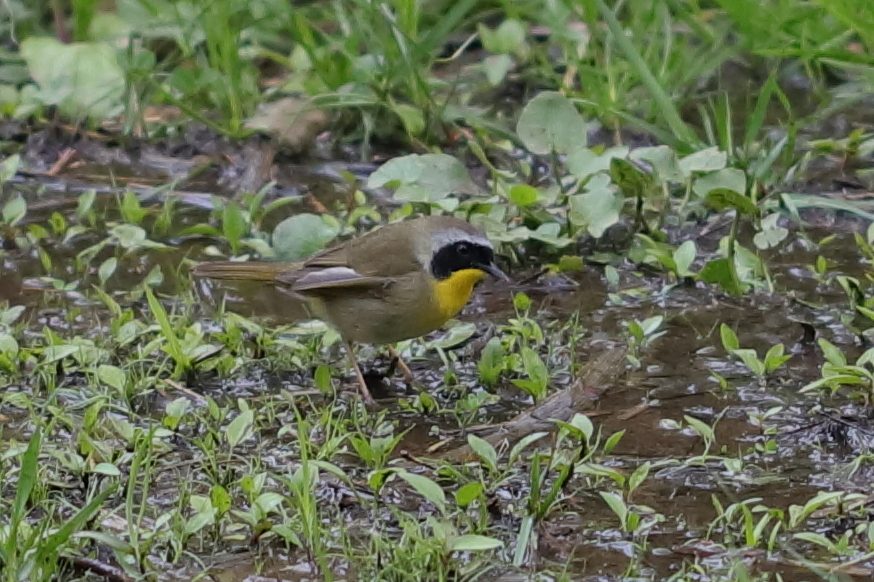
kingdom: Animalia
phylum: Chordata
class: Aves
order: Passeriformes
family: Parulidae
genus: Geothlypis
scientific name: Geothlypis trichas
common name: Common yellowthroat
